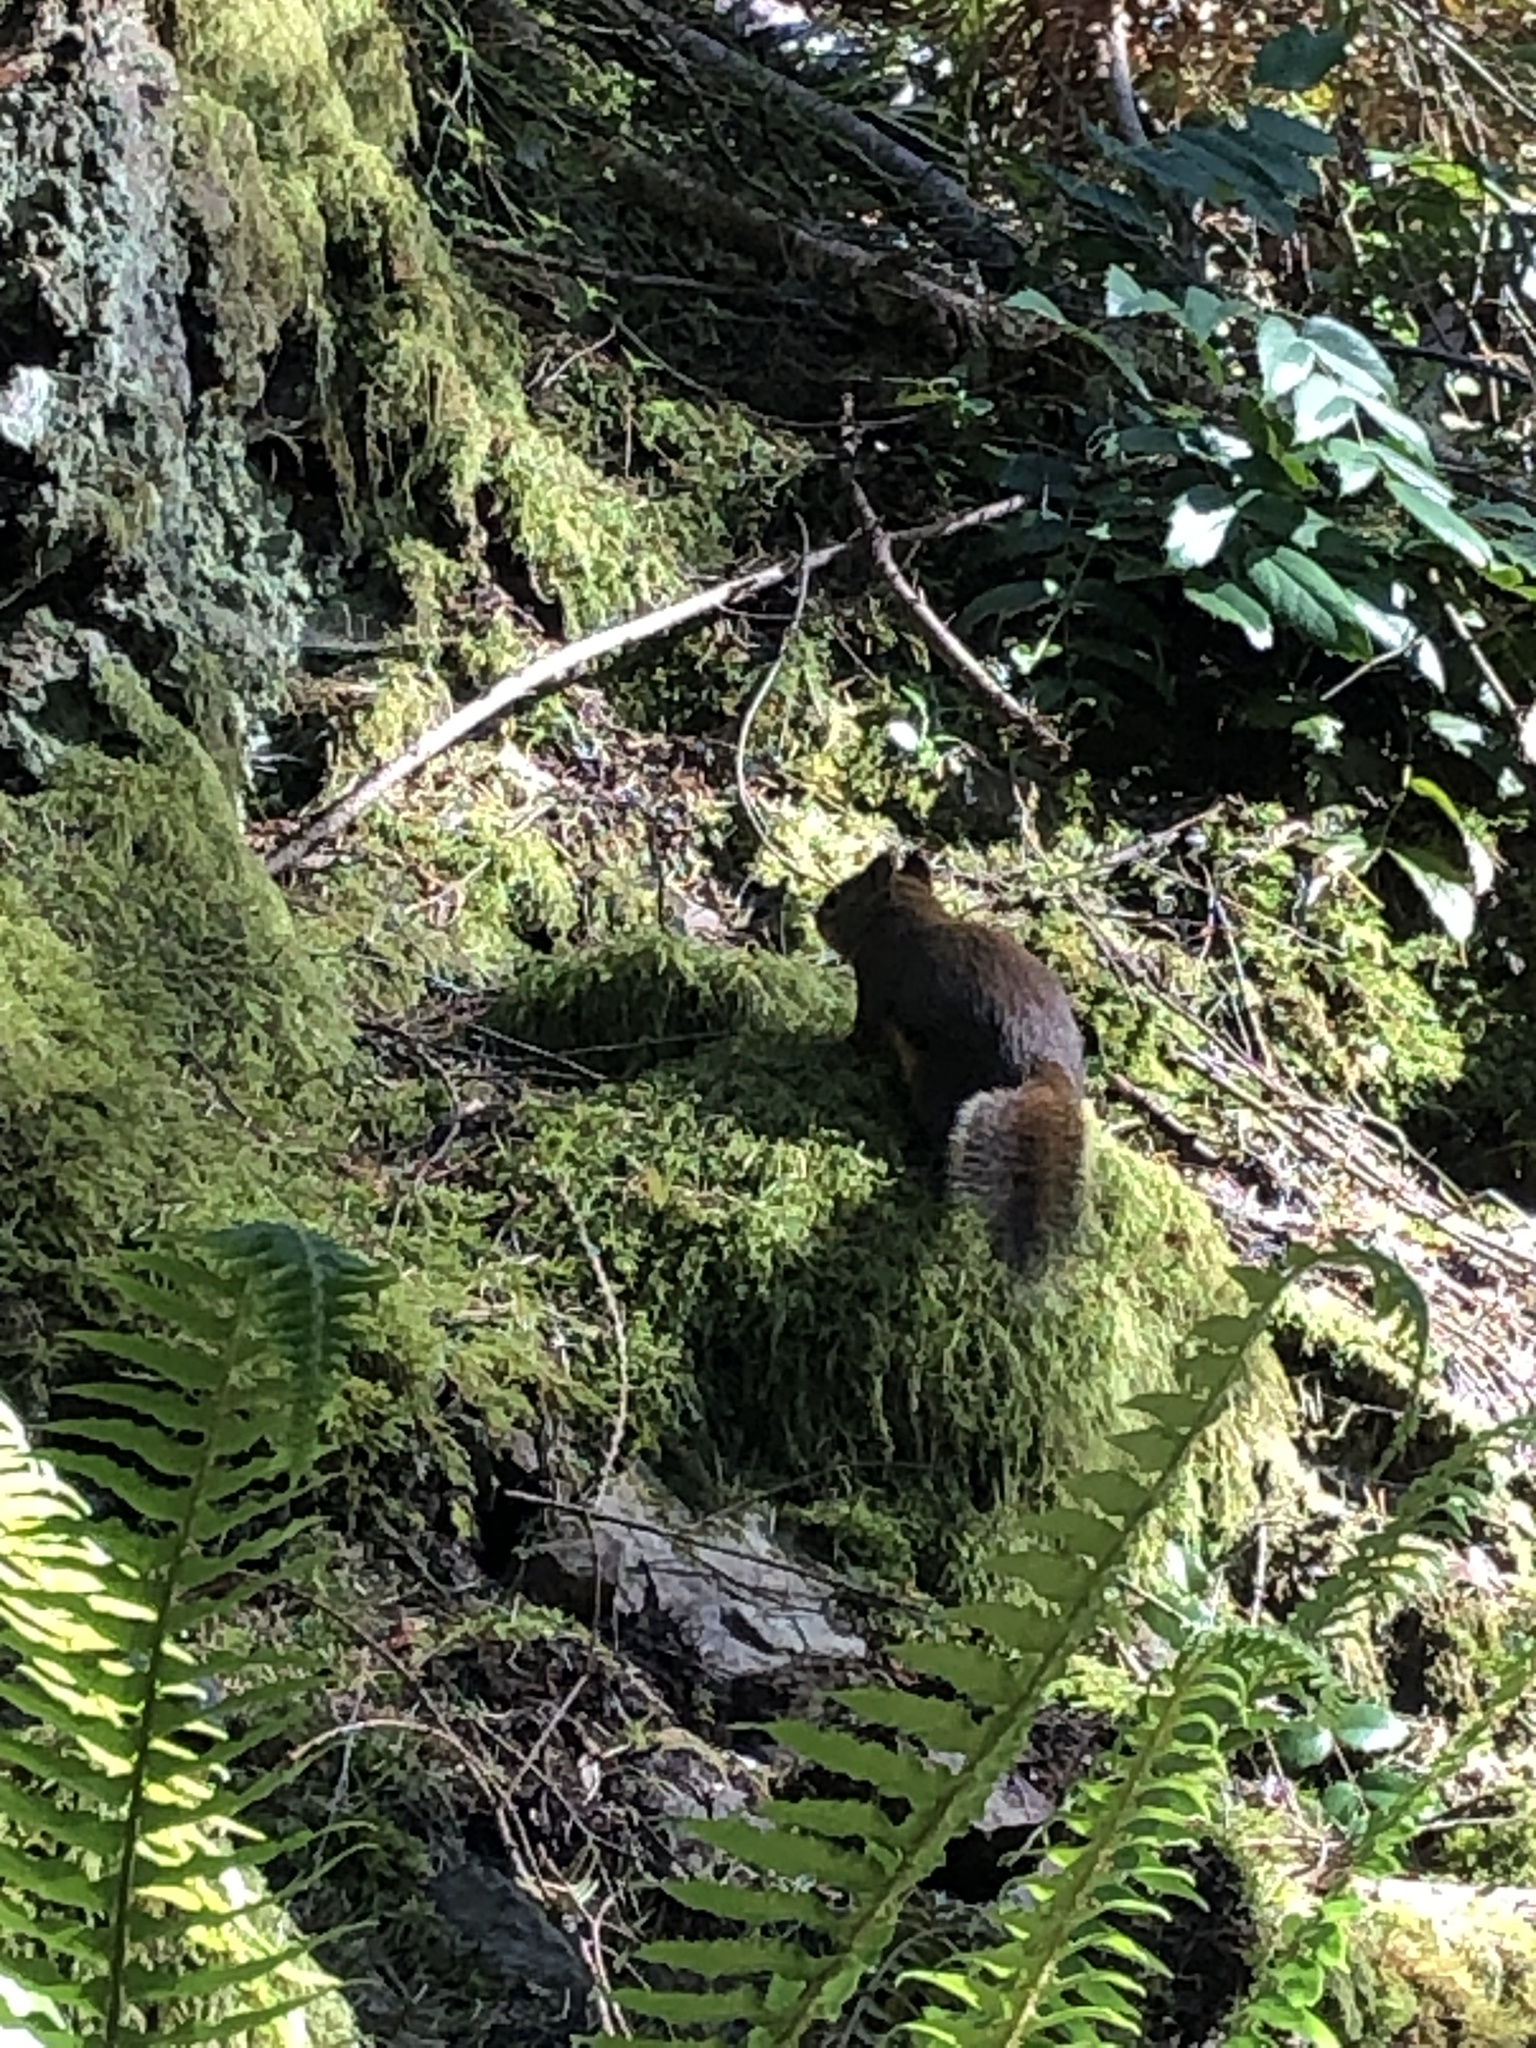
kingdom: Animalia
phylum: Chordata
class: Mammalia
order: Rodentia
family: Sciuridae
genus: Tamiasciurus
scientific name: Tamiasciurus douglasii
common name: Douglas's squirrel
